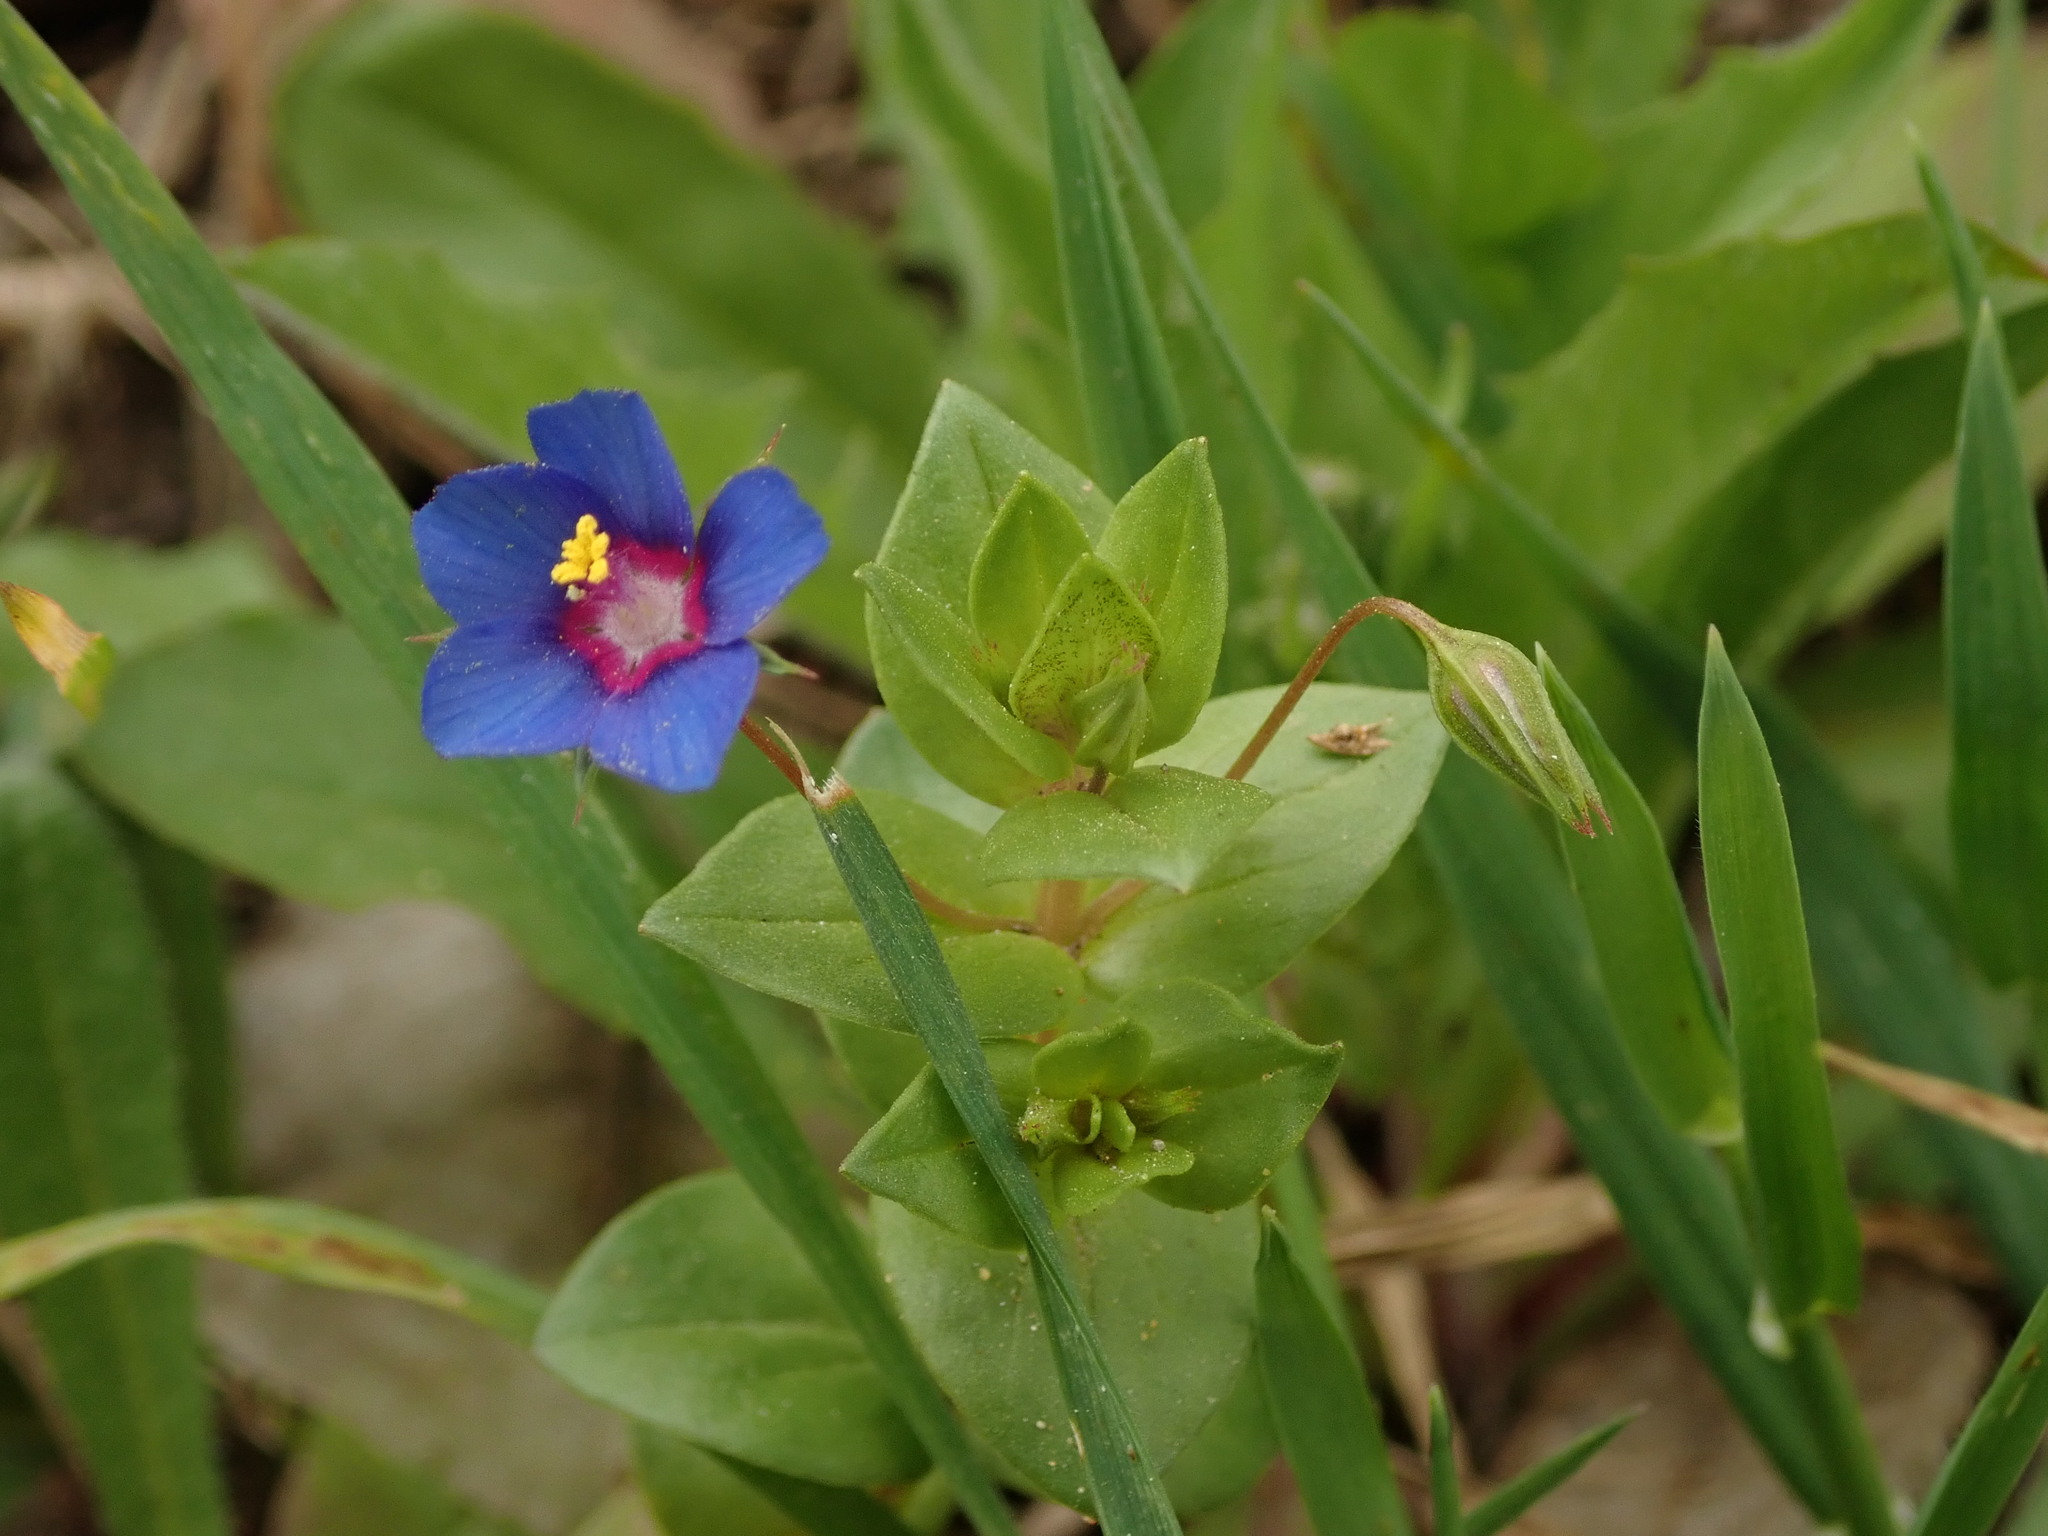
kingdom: Plantae
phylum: Tracheophyta
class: Magnoliopsida
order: Ericales
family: Primulaceae
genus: Lysimachia
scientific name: Lysimachia loeflingii
